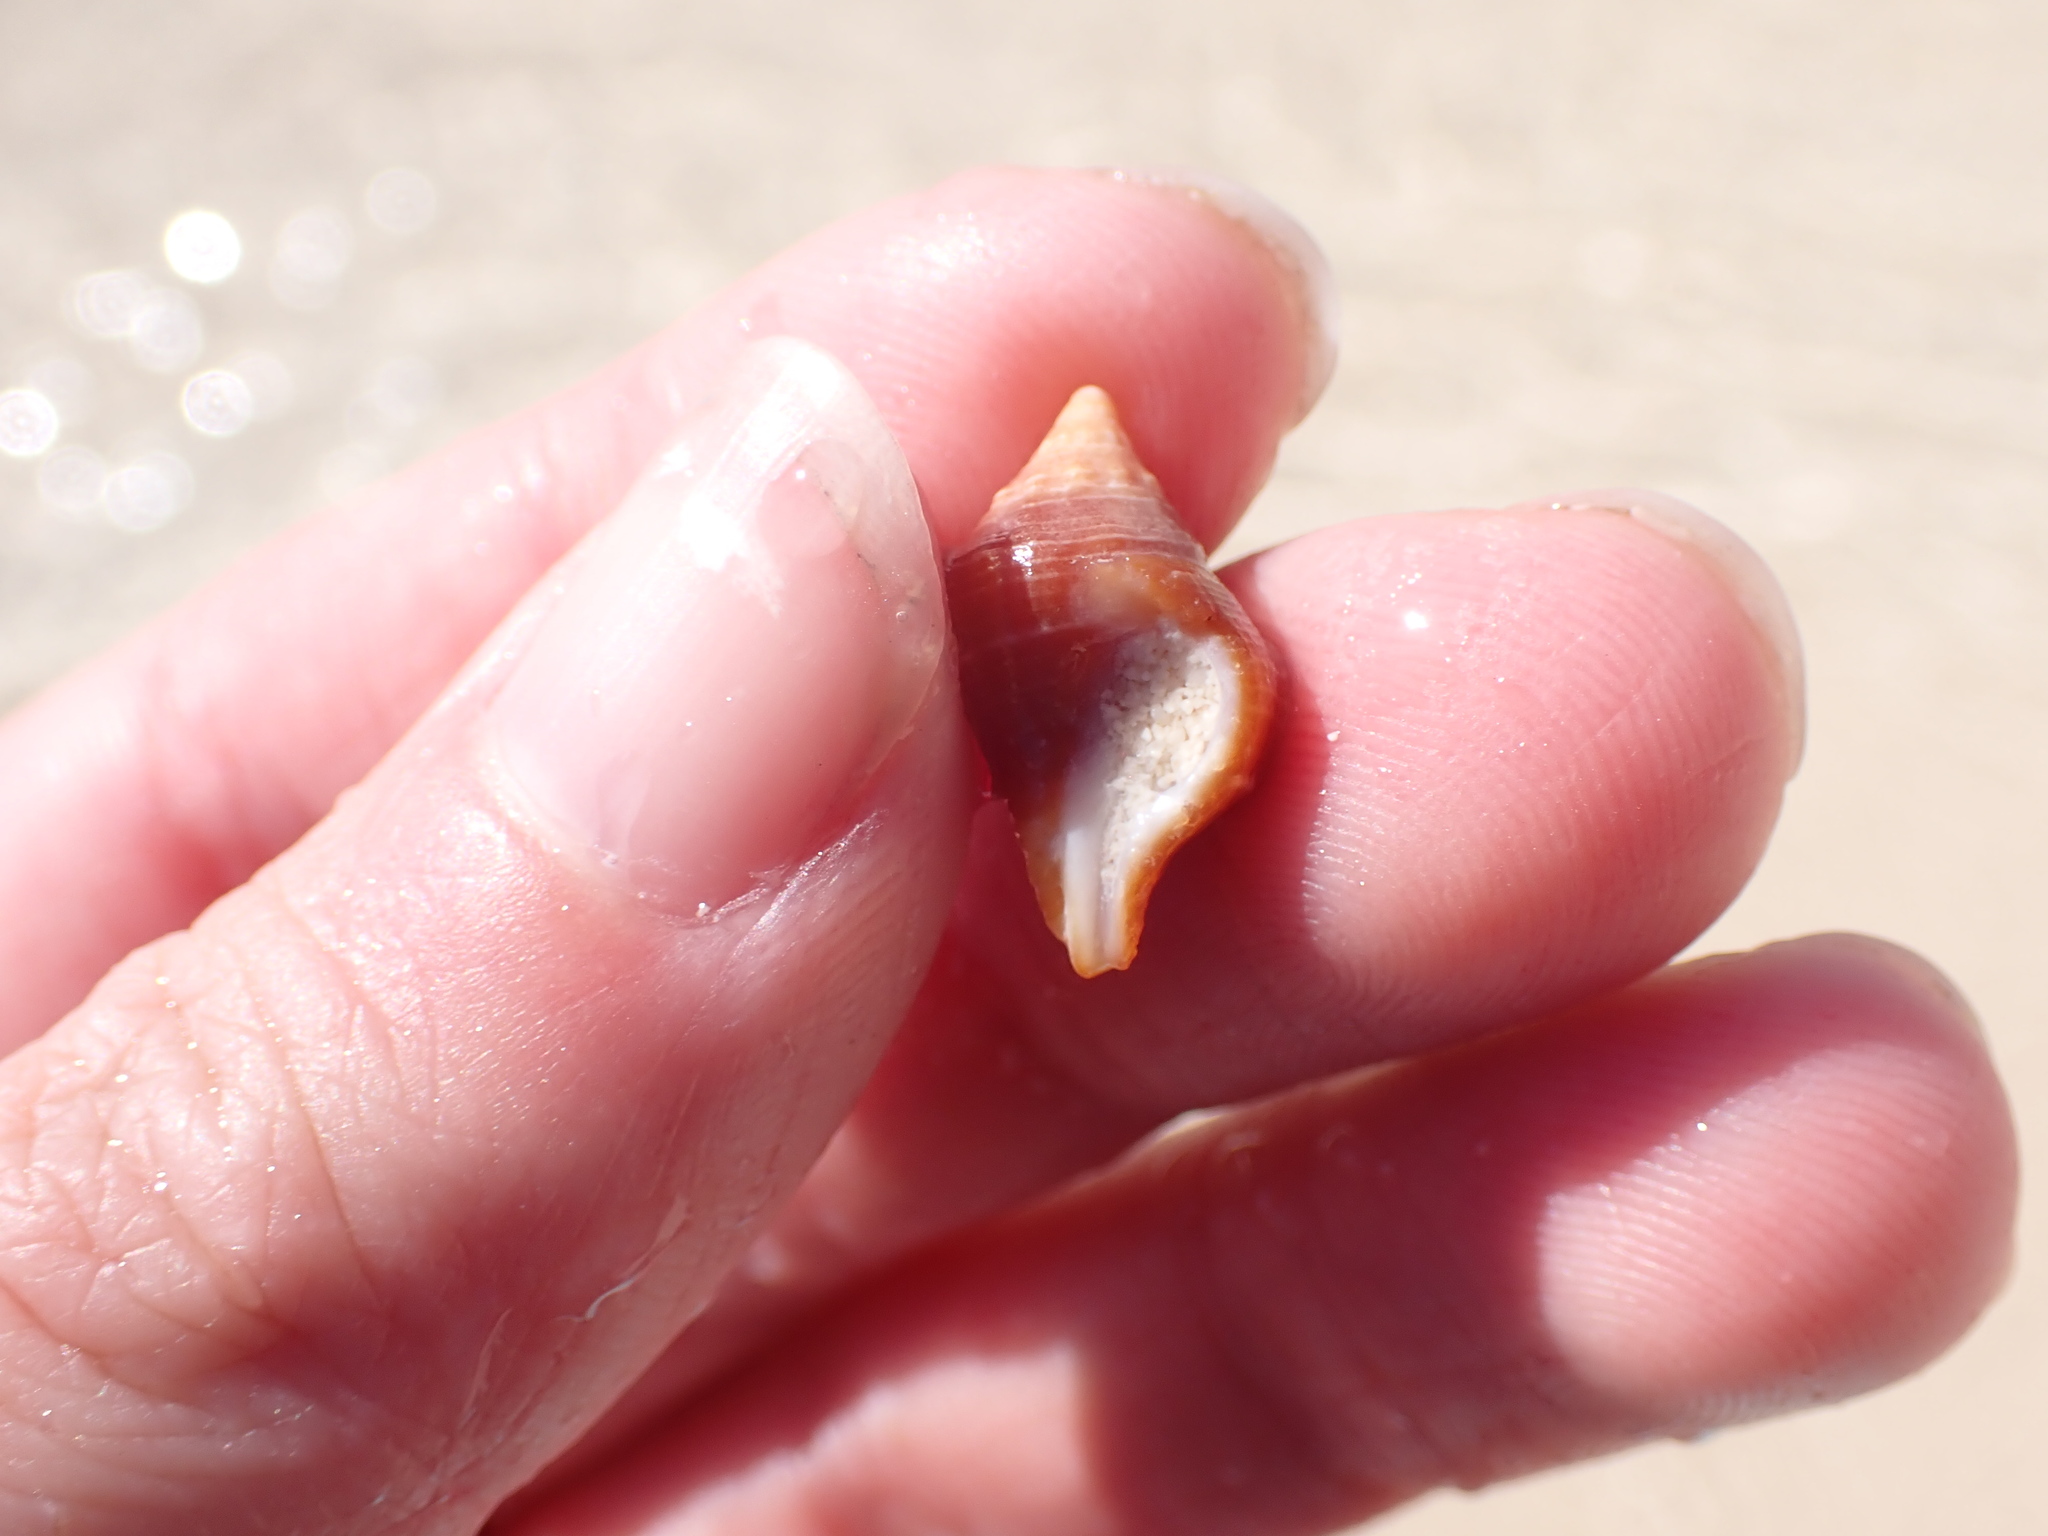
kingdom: Animalia
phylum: Mollusca
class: Gastropoda
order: Neogastropoda
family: Fasciolariidae
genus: Leucozonia
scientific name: Leucozonia nassa
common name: Chestnut latirus
